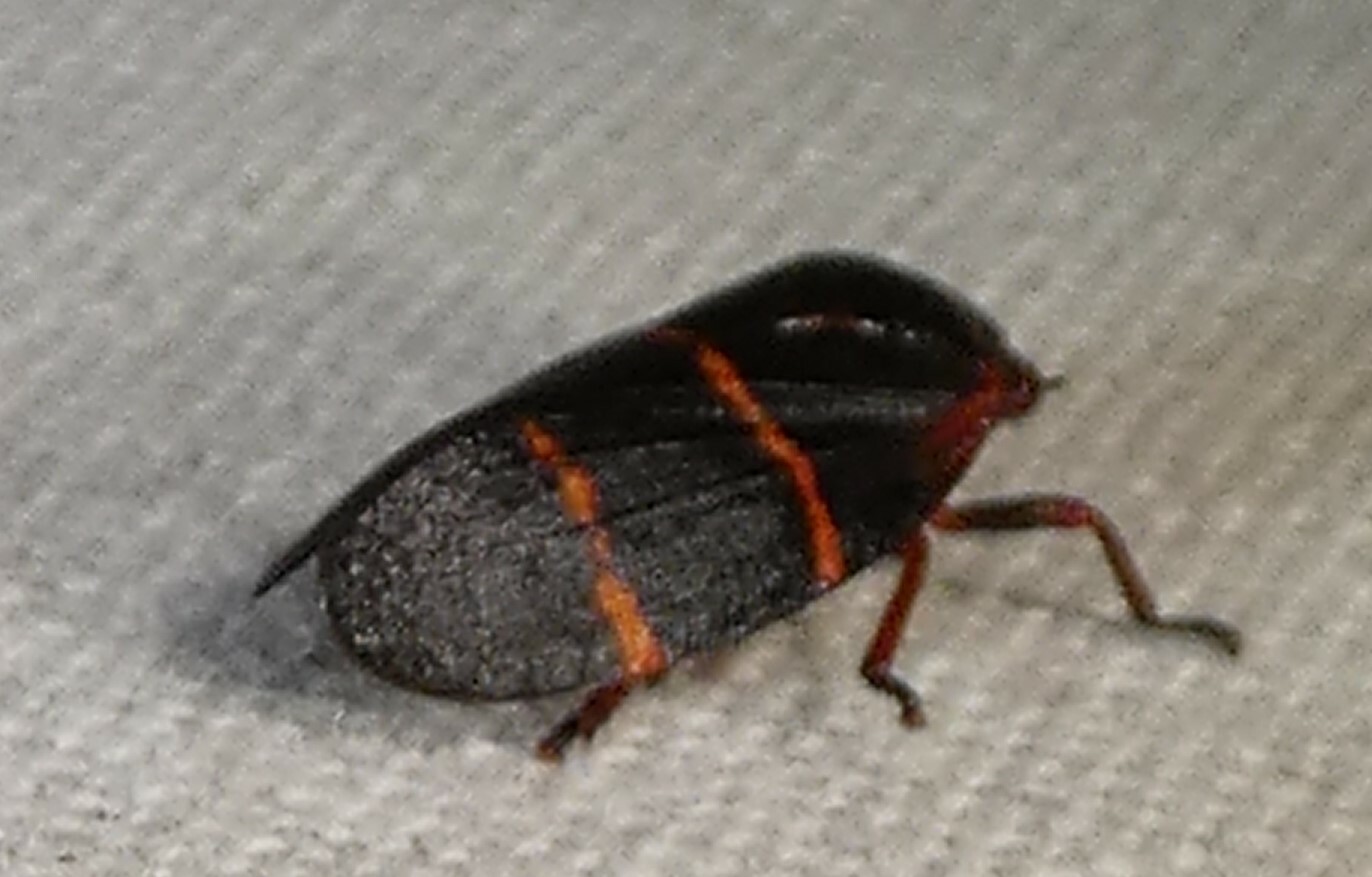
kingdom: Animalia
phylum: Arthropoda
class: Insecta
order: Hemiptera
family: Cercopidae
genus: Prosapia
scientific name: Prosapia bicincta
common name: Twolined spittlebug
